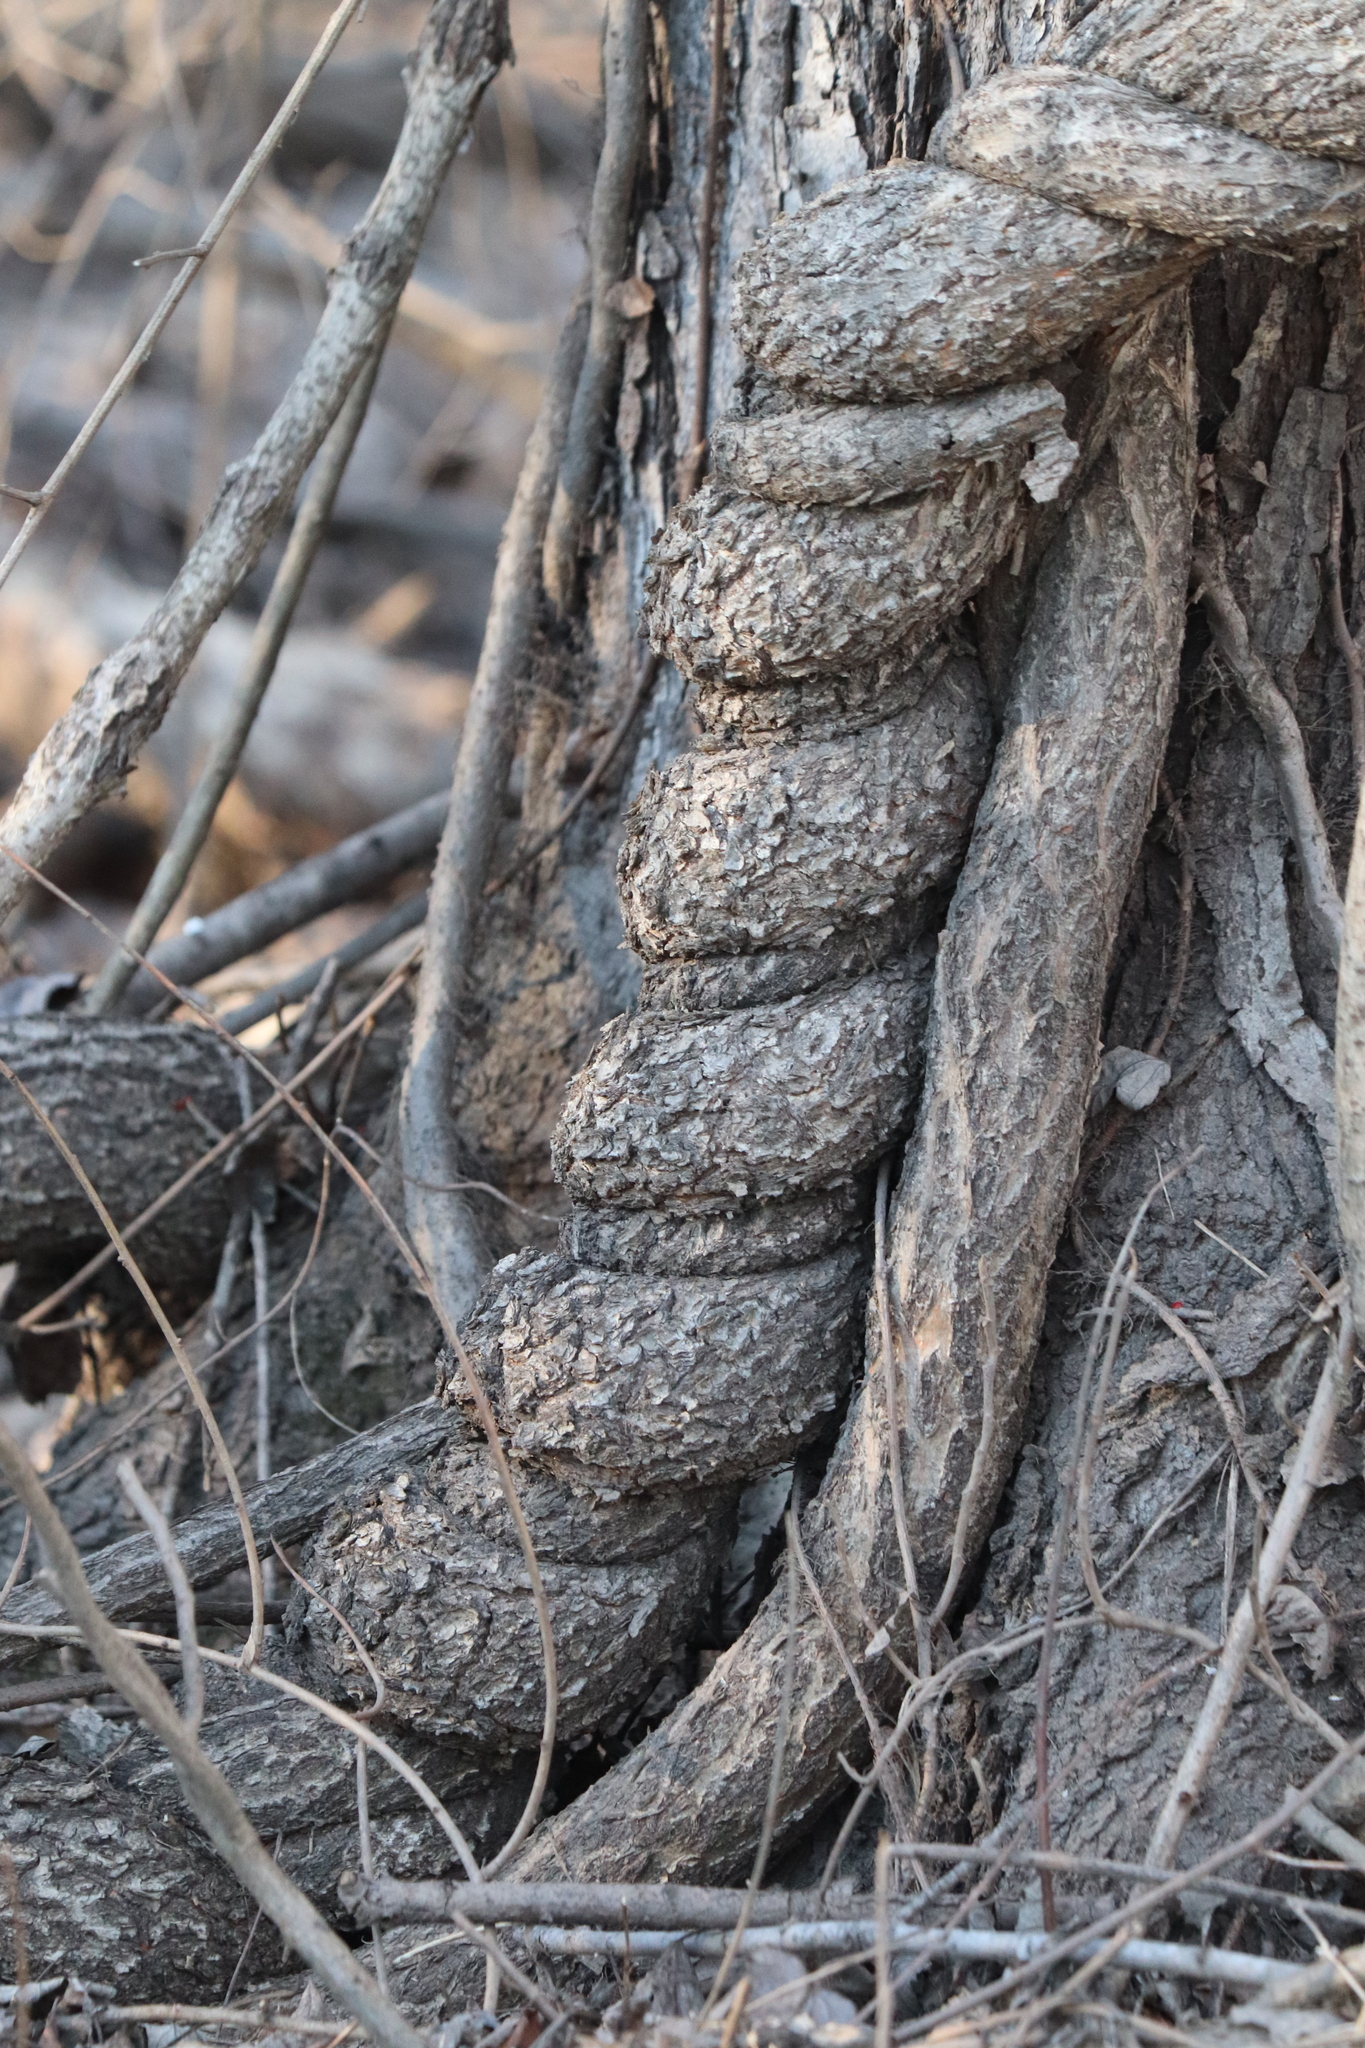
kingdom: Plantae
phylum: Tracheophyta
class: Magnoliopsida
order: Celastrales
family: Celastraceae
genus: Celastrus
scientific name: Celastrus orbiculatus
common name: Oriental bittersweet
